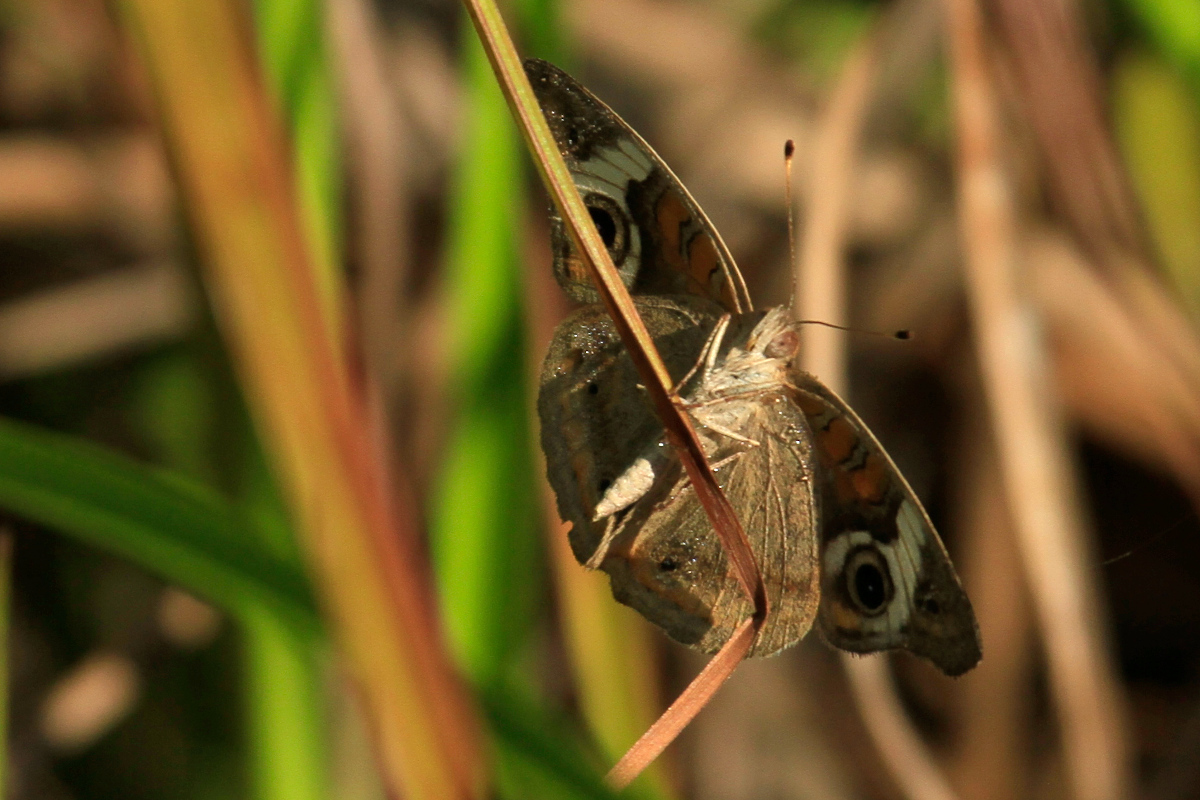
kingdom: Animalia
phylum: Arthropoda
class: Insecta
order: Lepidoptera
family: Nymphalidae
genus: Junonia
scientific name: Junonia coenia
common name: Common buckeye
